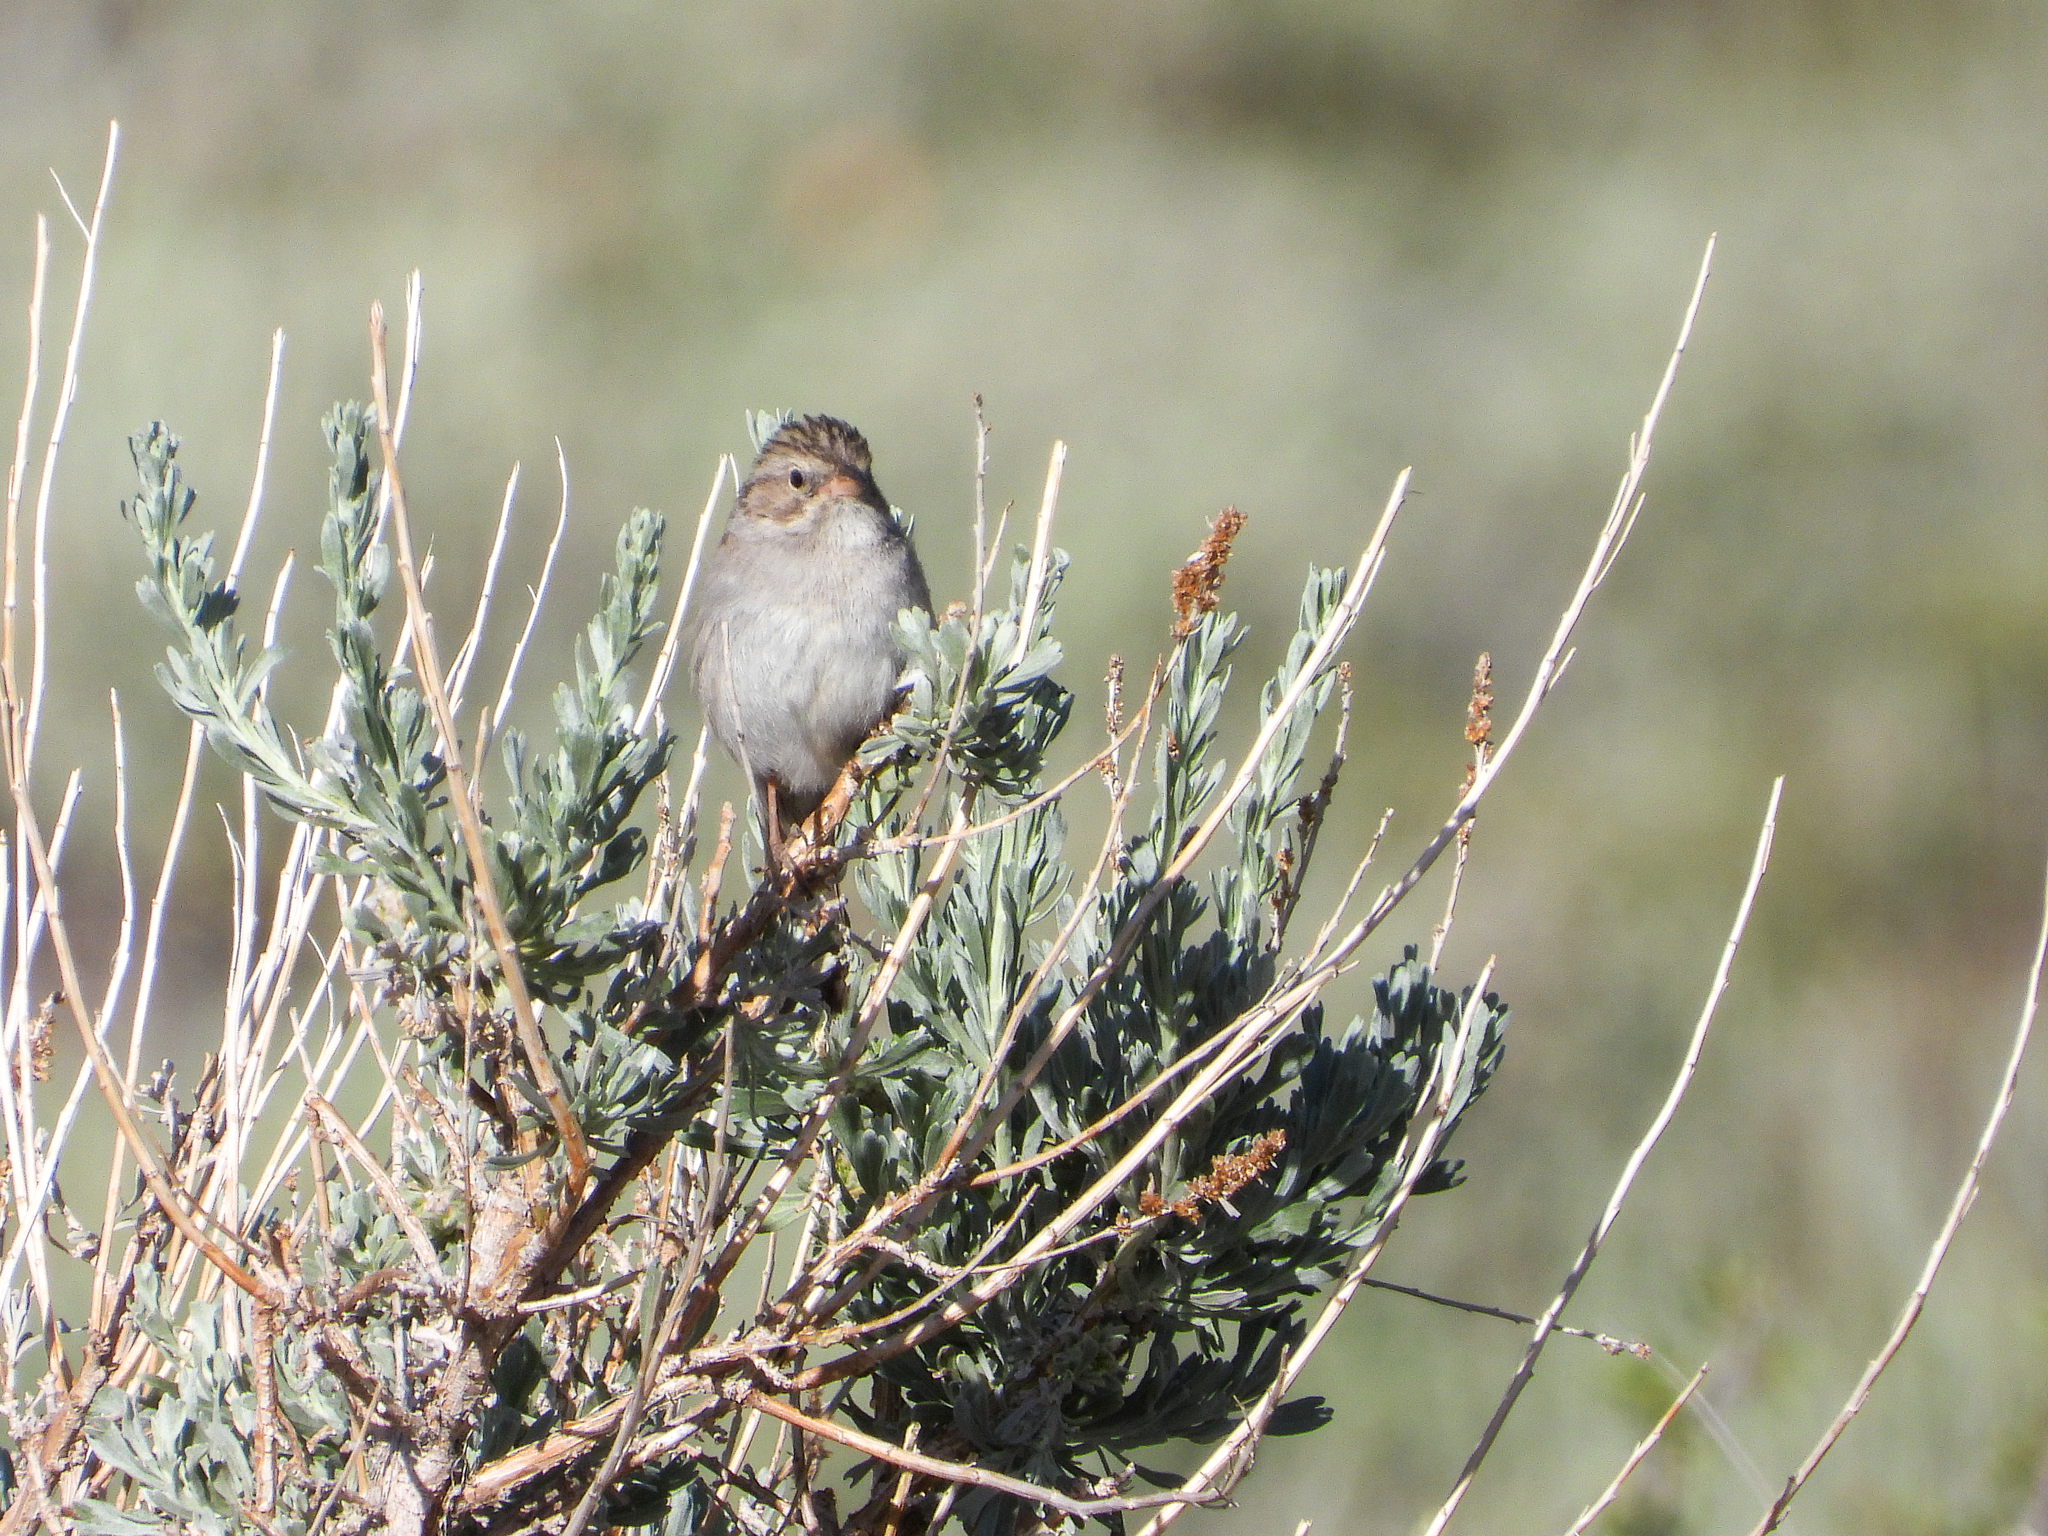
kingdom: Animalia
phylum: Chordata
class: Aves
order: Passeriformes
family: Passerellidae
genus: Spizella
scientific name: Spizella breweri
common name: Brewer's sparrow
